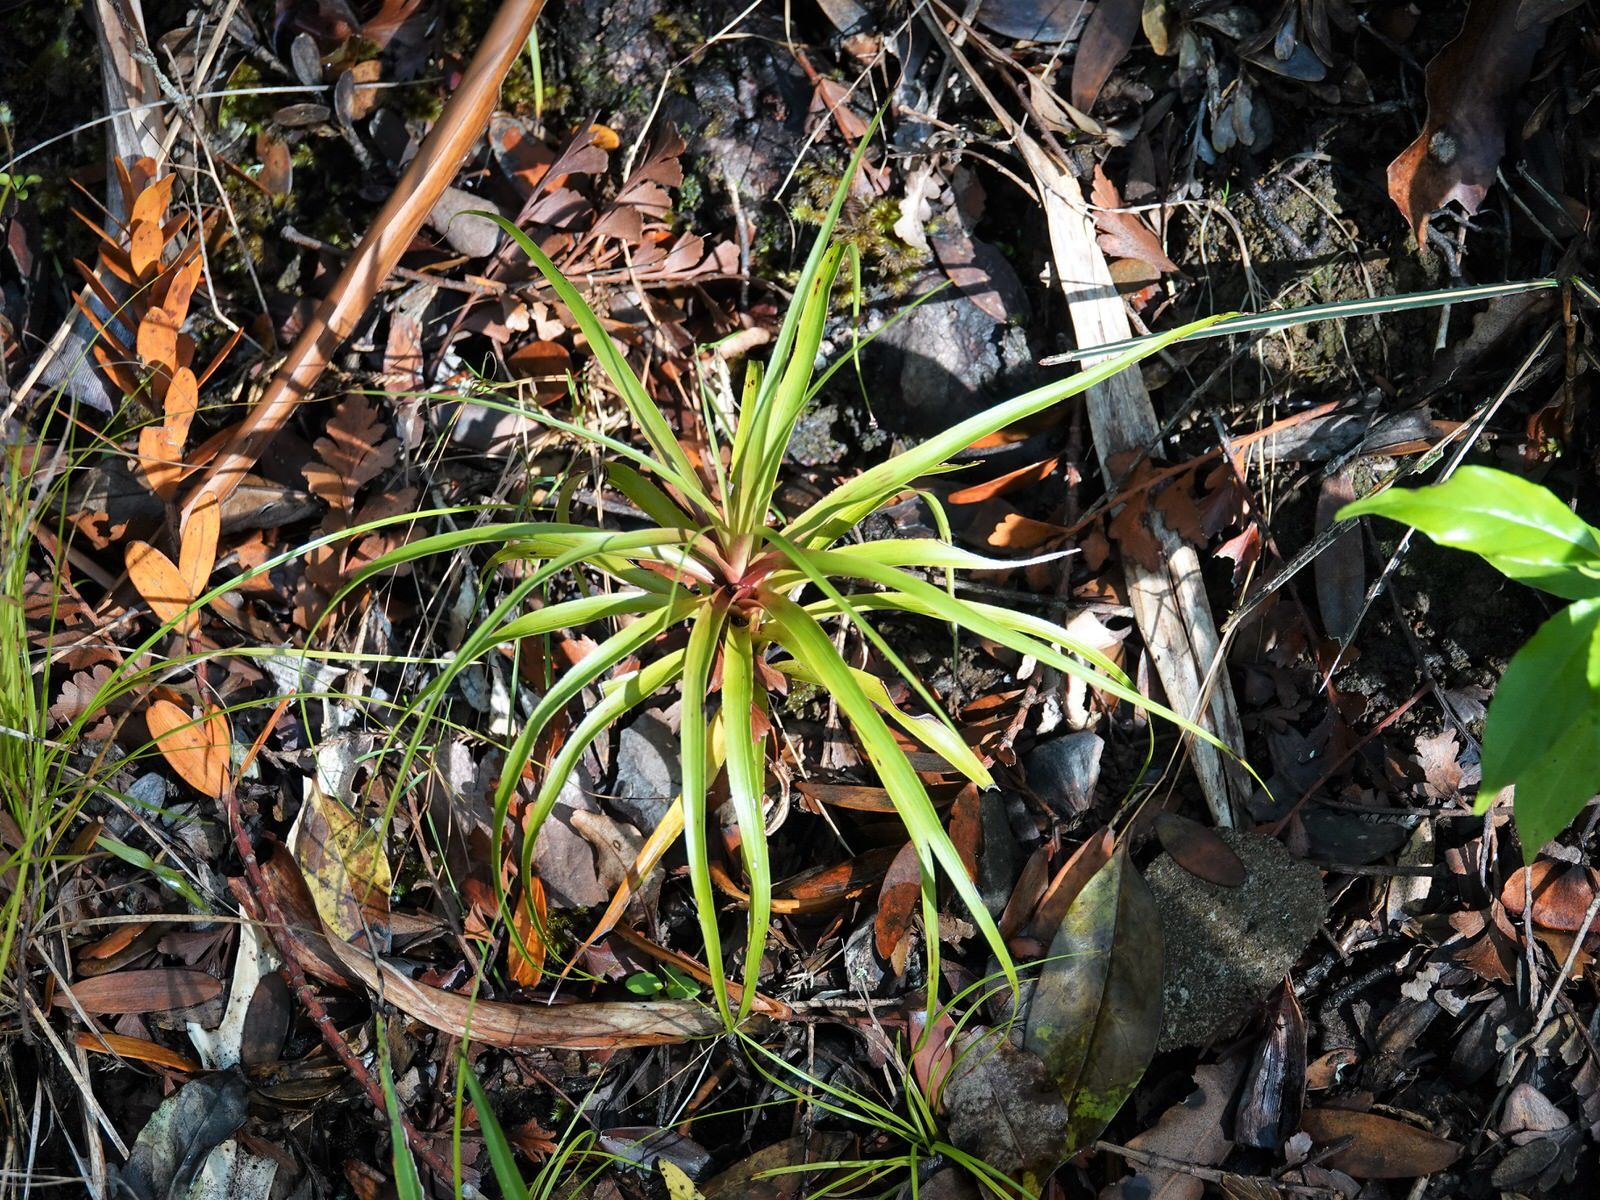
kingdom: Plantae
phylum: Tracheophyta
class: Magnoliopsida
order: Ericales
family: Ericaceae
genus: Dracophyllum
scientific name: Dracophyllum latifolium
